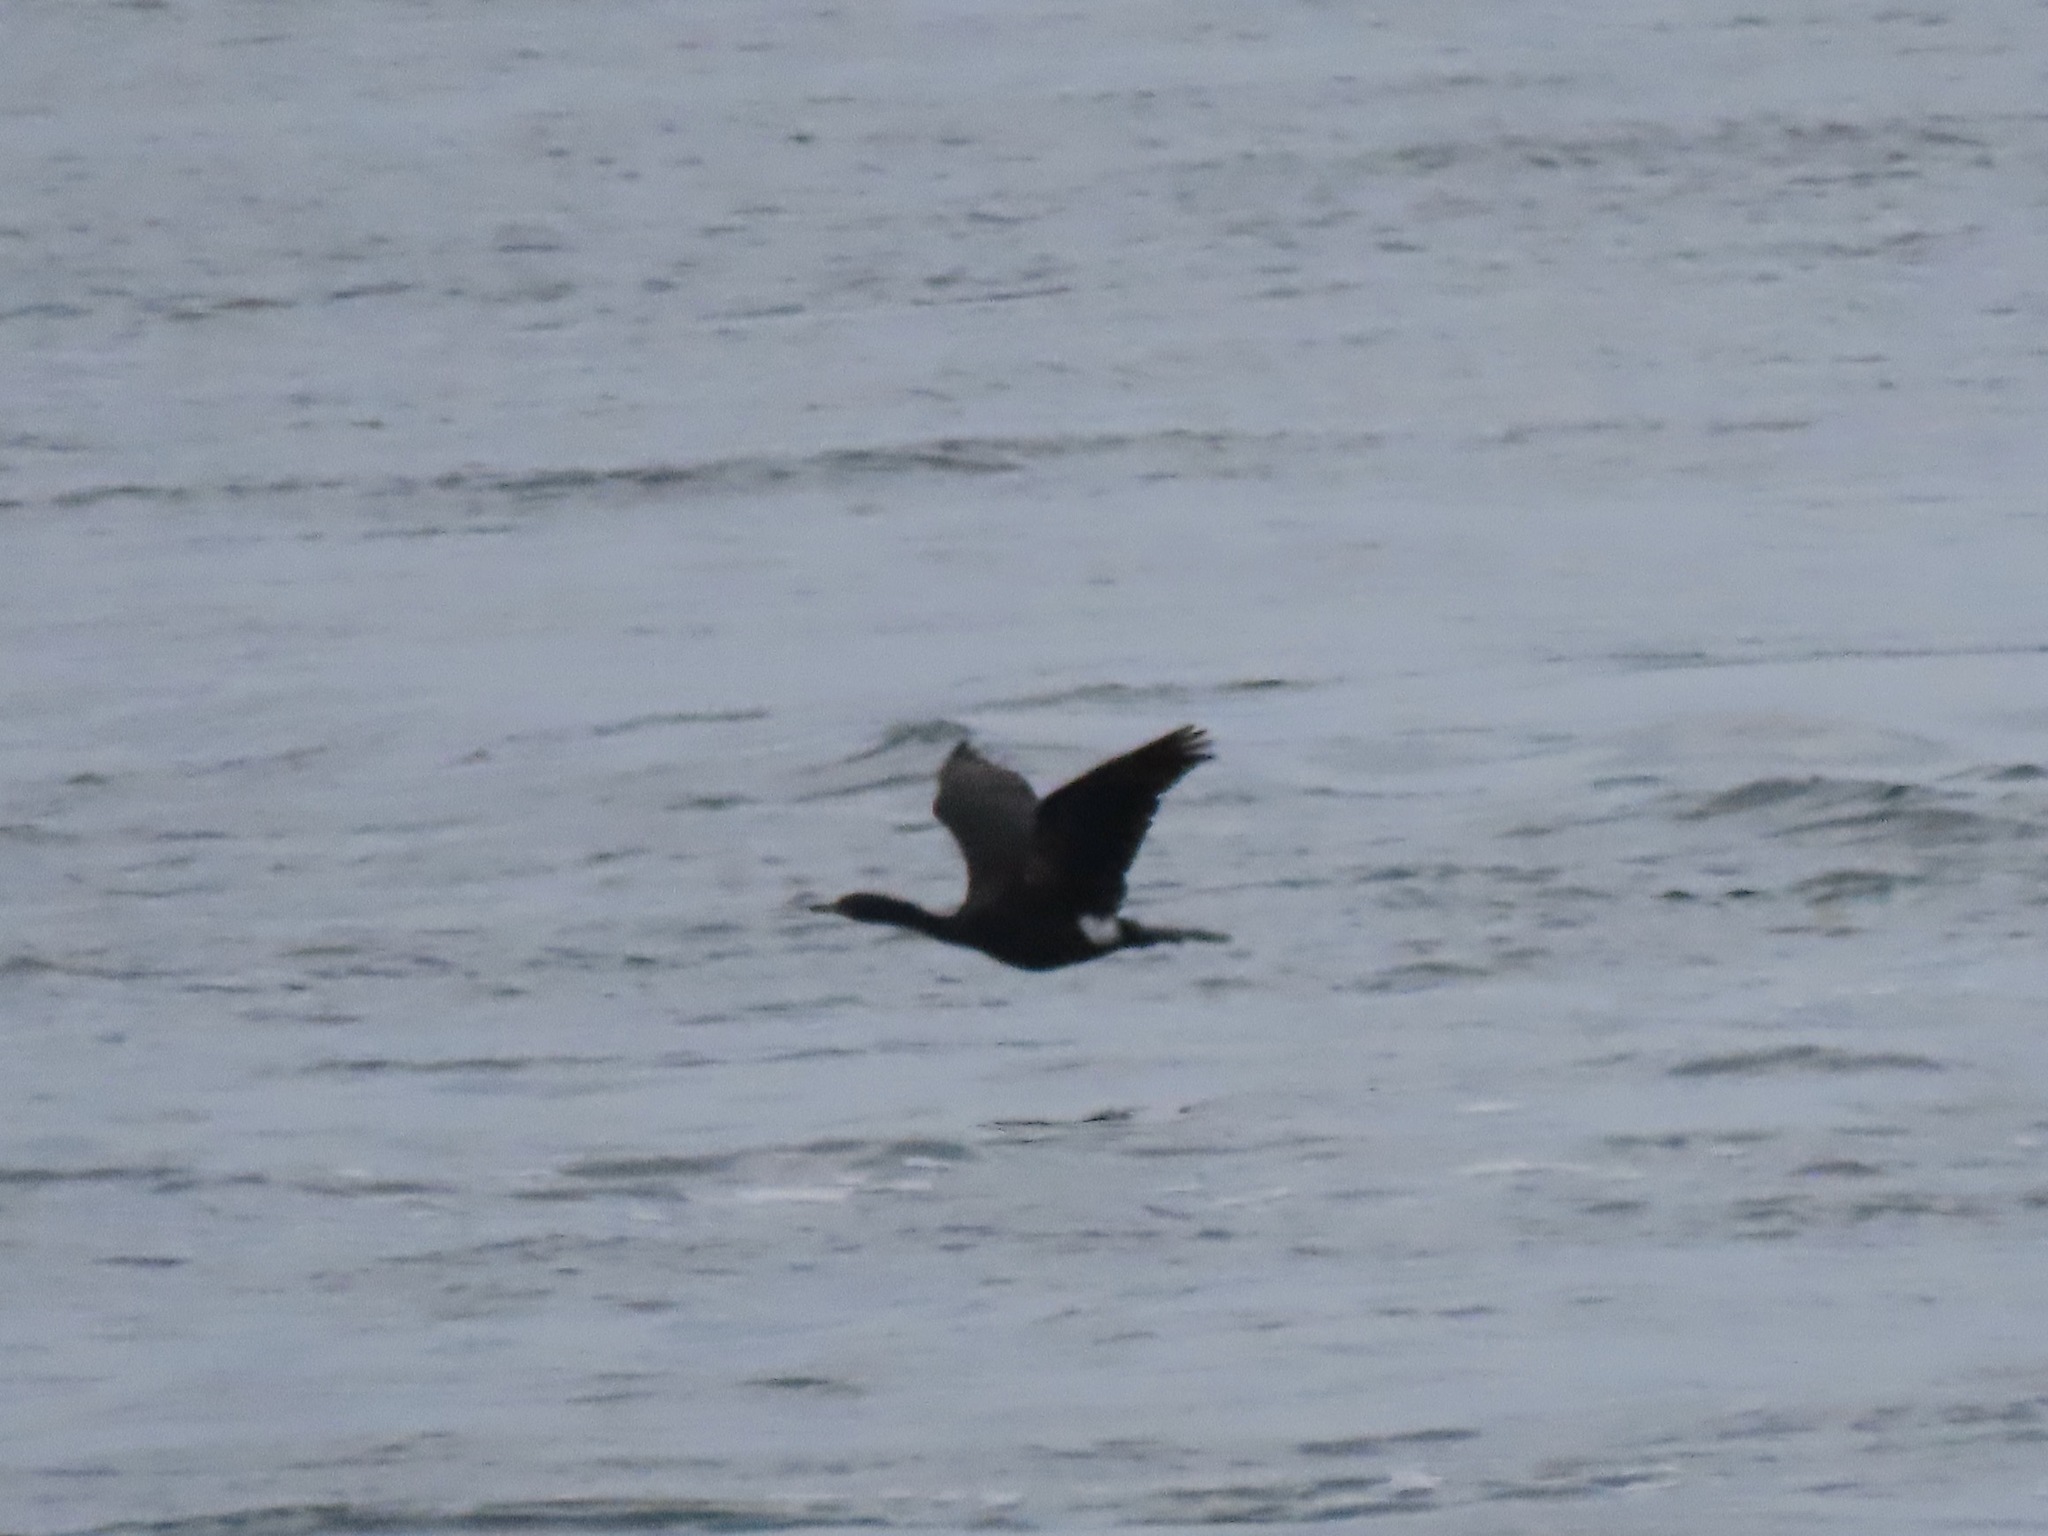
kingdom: Animalia
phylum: Chordata
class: Aves
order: Suliformes
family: Phalacrocoracidae
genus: Phalacrocorax
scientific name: Phalacrocorax pelagicus
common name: Pelagic cormorant
